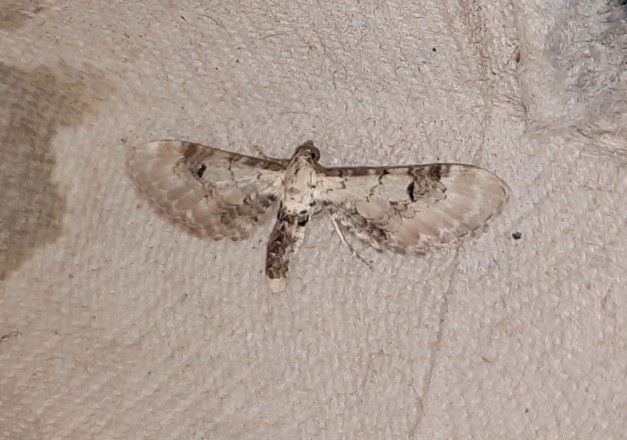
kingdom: Animalia
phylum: Arthropoda
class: Insecta
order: Lepidoptera
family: Geometridae
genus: Eupithecia
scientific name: Eupithecia centaureata
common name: Lime-speck pug
